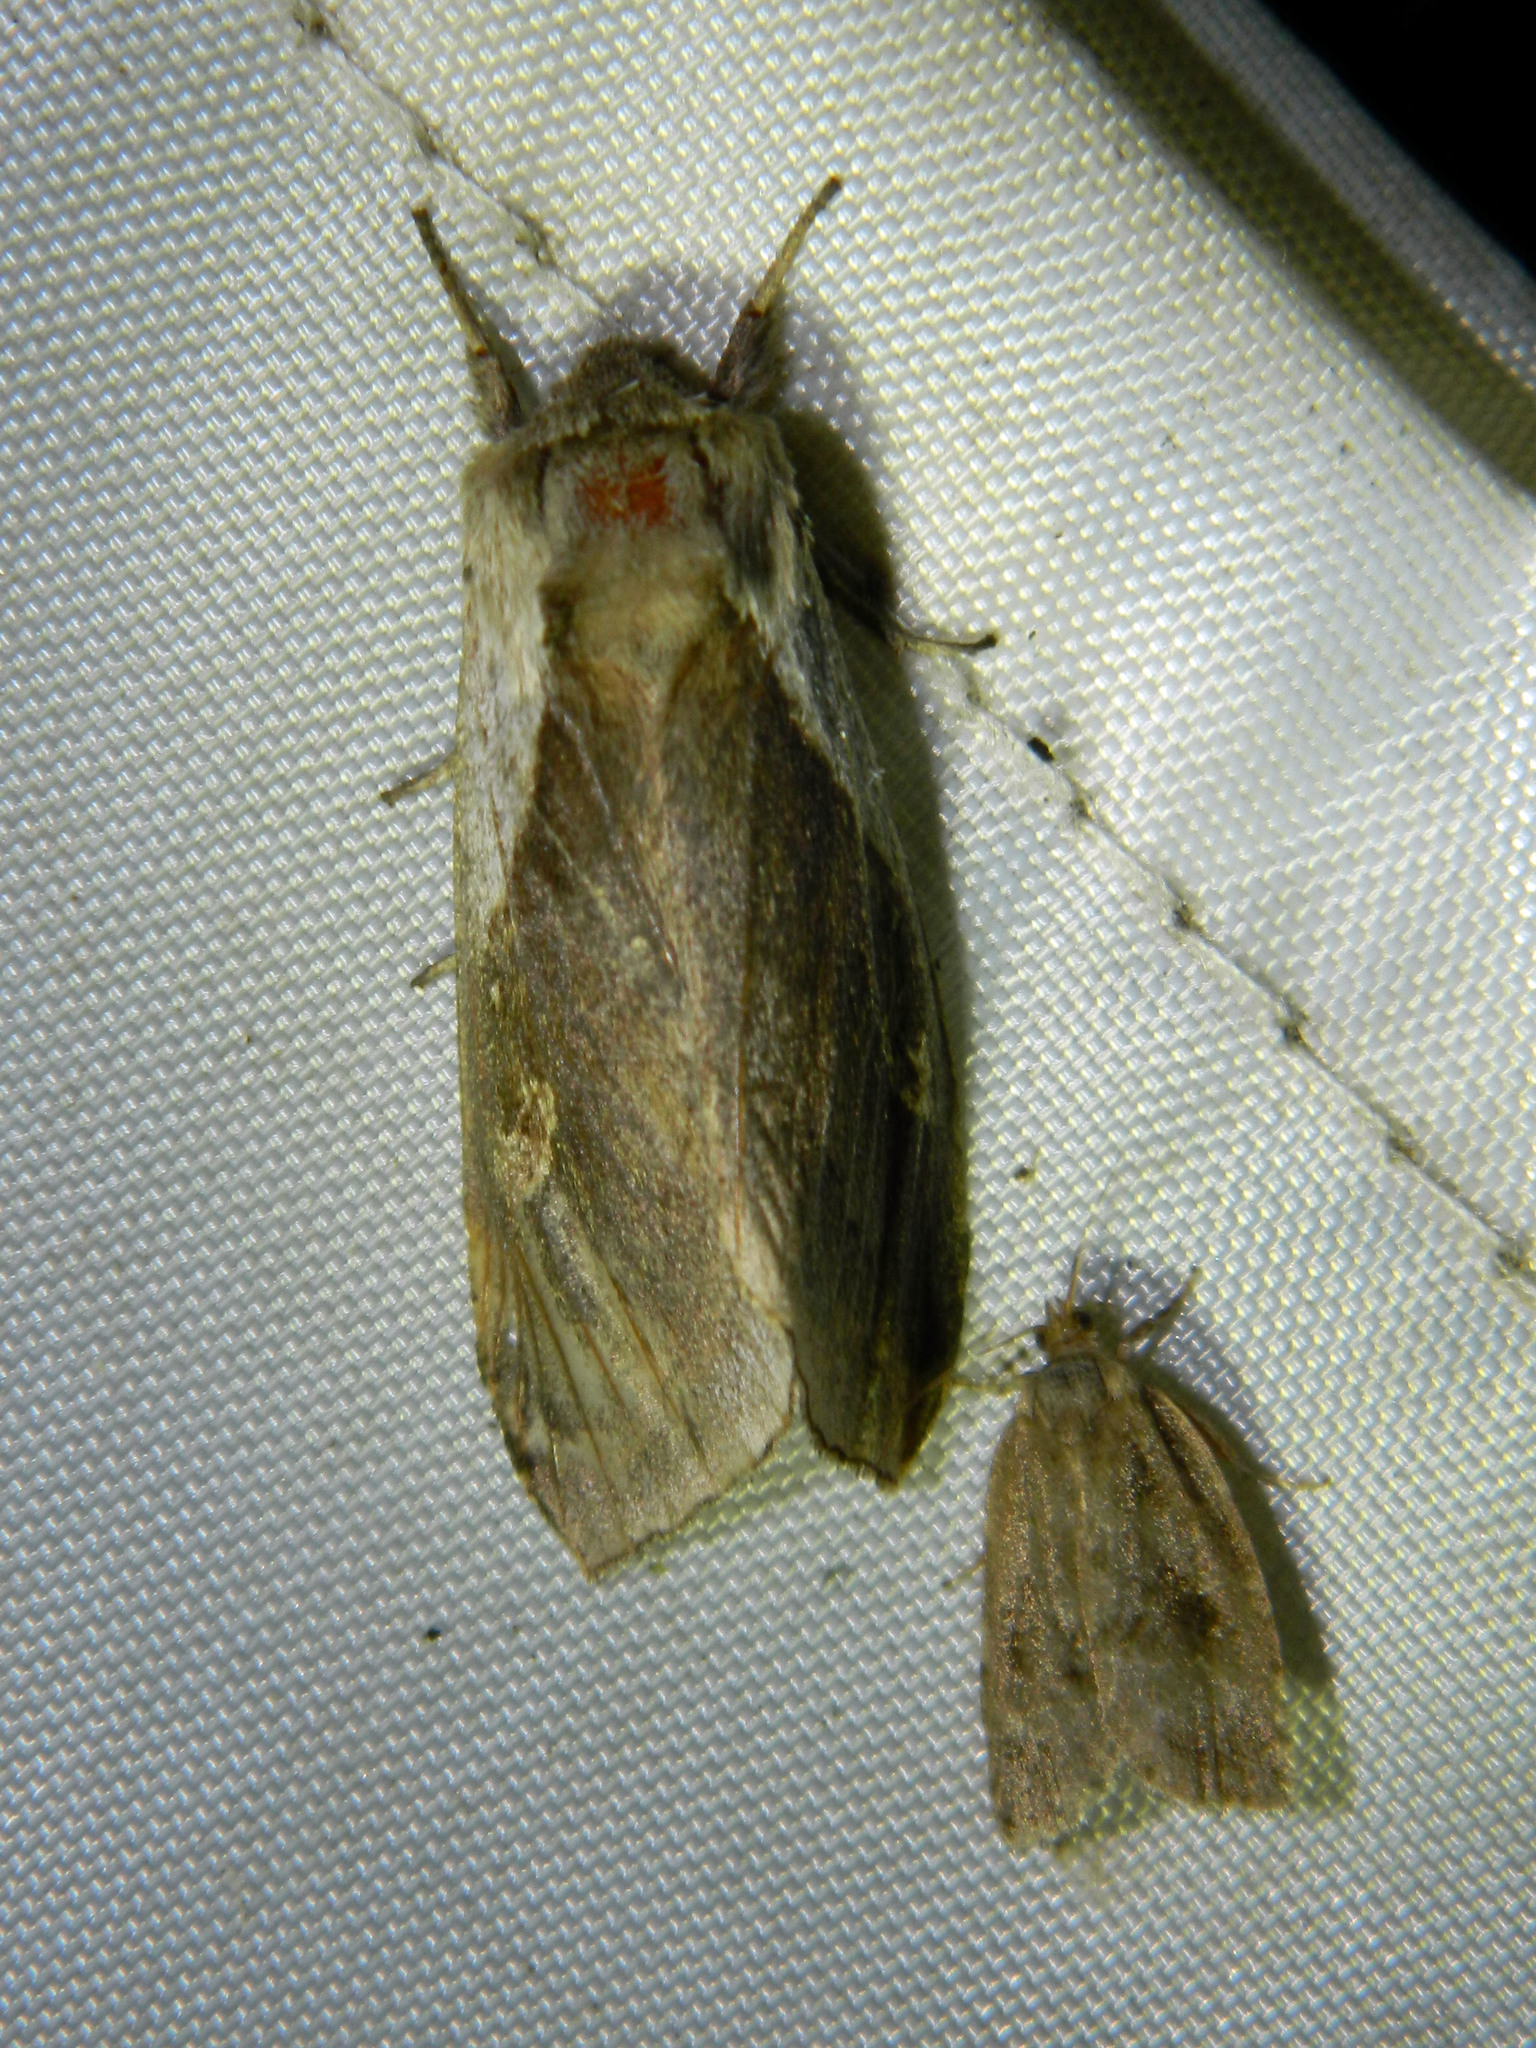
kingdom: Animalia
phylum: Arthropoda
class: Insecta
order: Lepidoptera
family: Noctuidae
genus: Bellura
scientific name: Bellura obliqua
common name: Cattail borer moth
